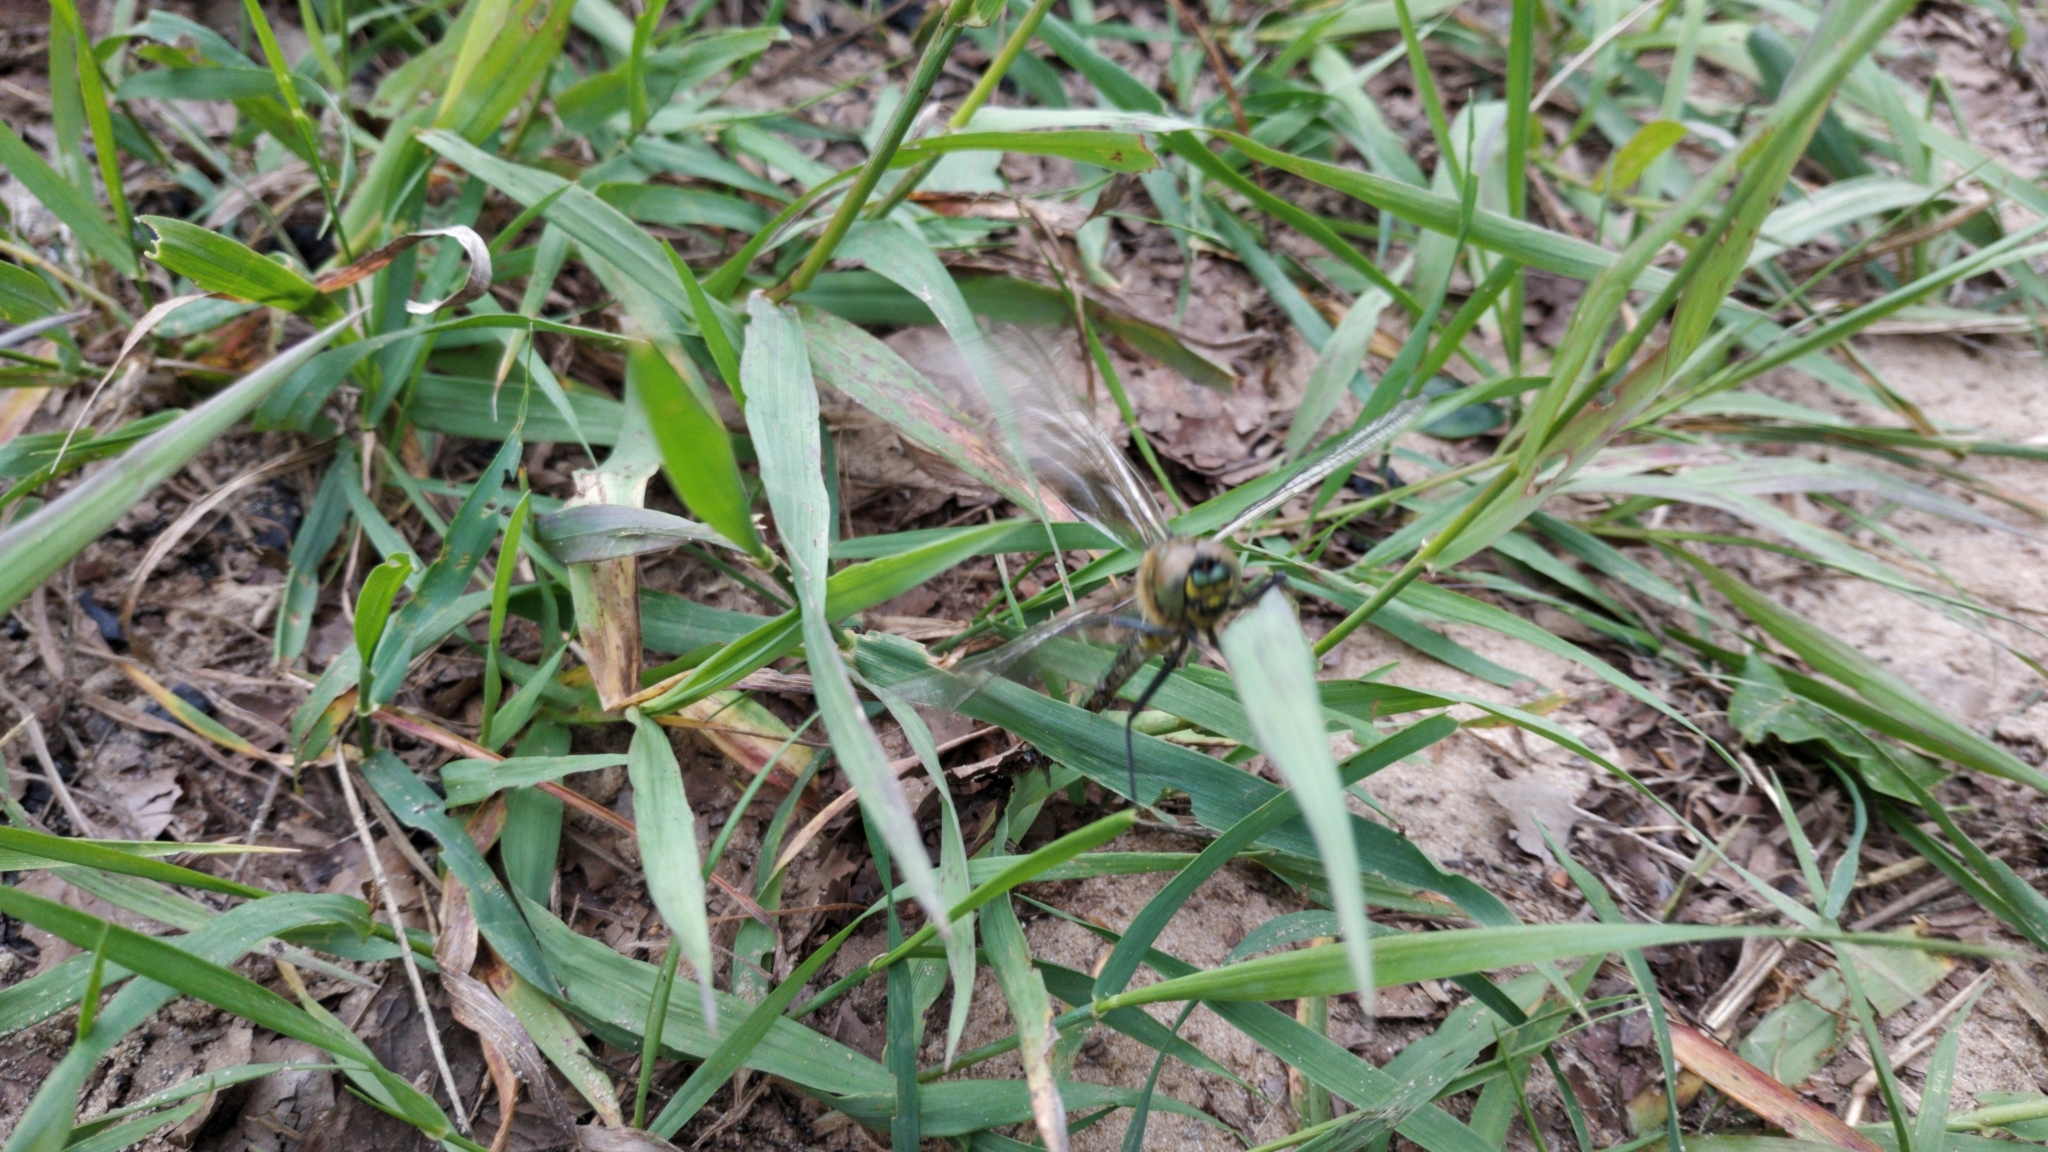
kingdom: Animalia
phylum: Arthropoda
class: Insecta
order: Odonata
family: Corduliidae
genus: Somatochlora
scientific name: Somatochlora metallica
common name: Brilliant emerald
